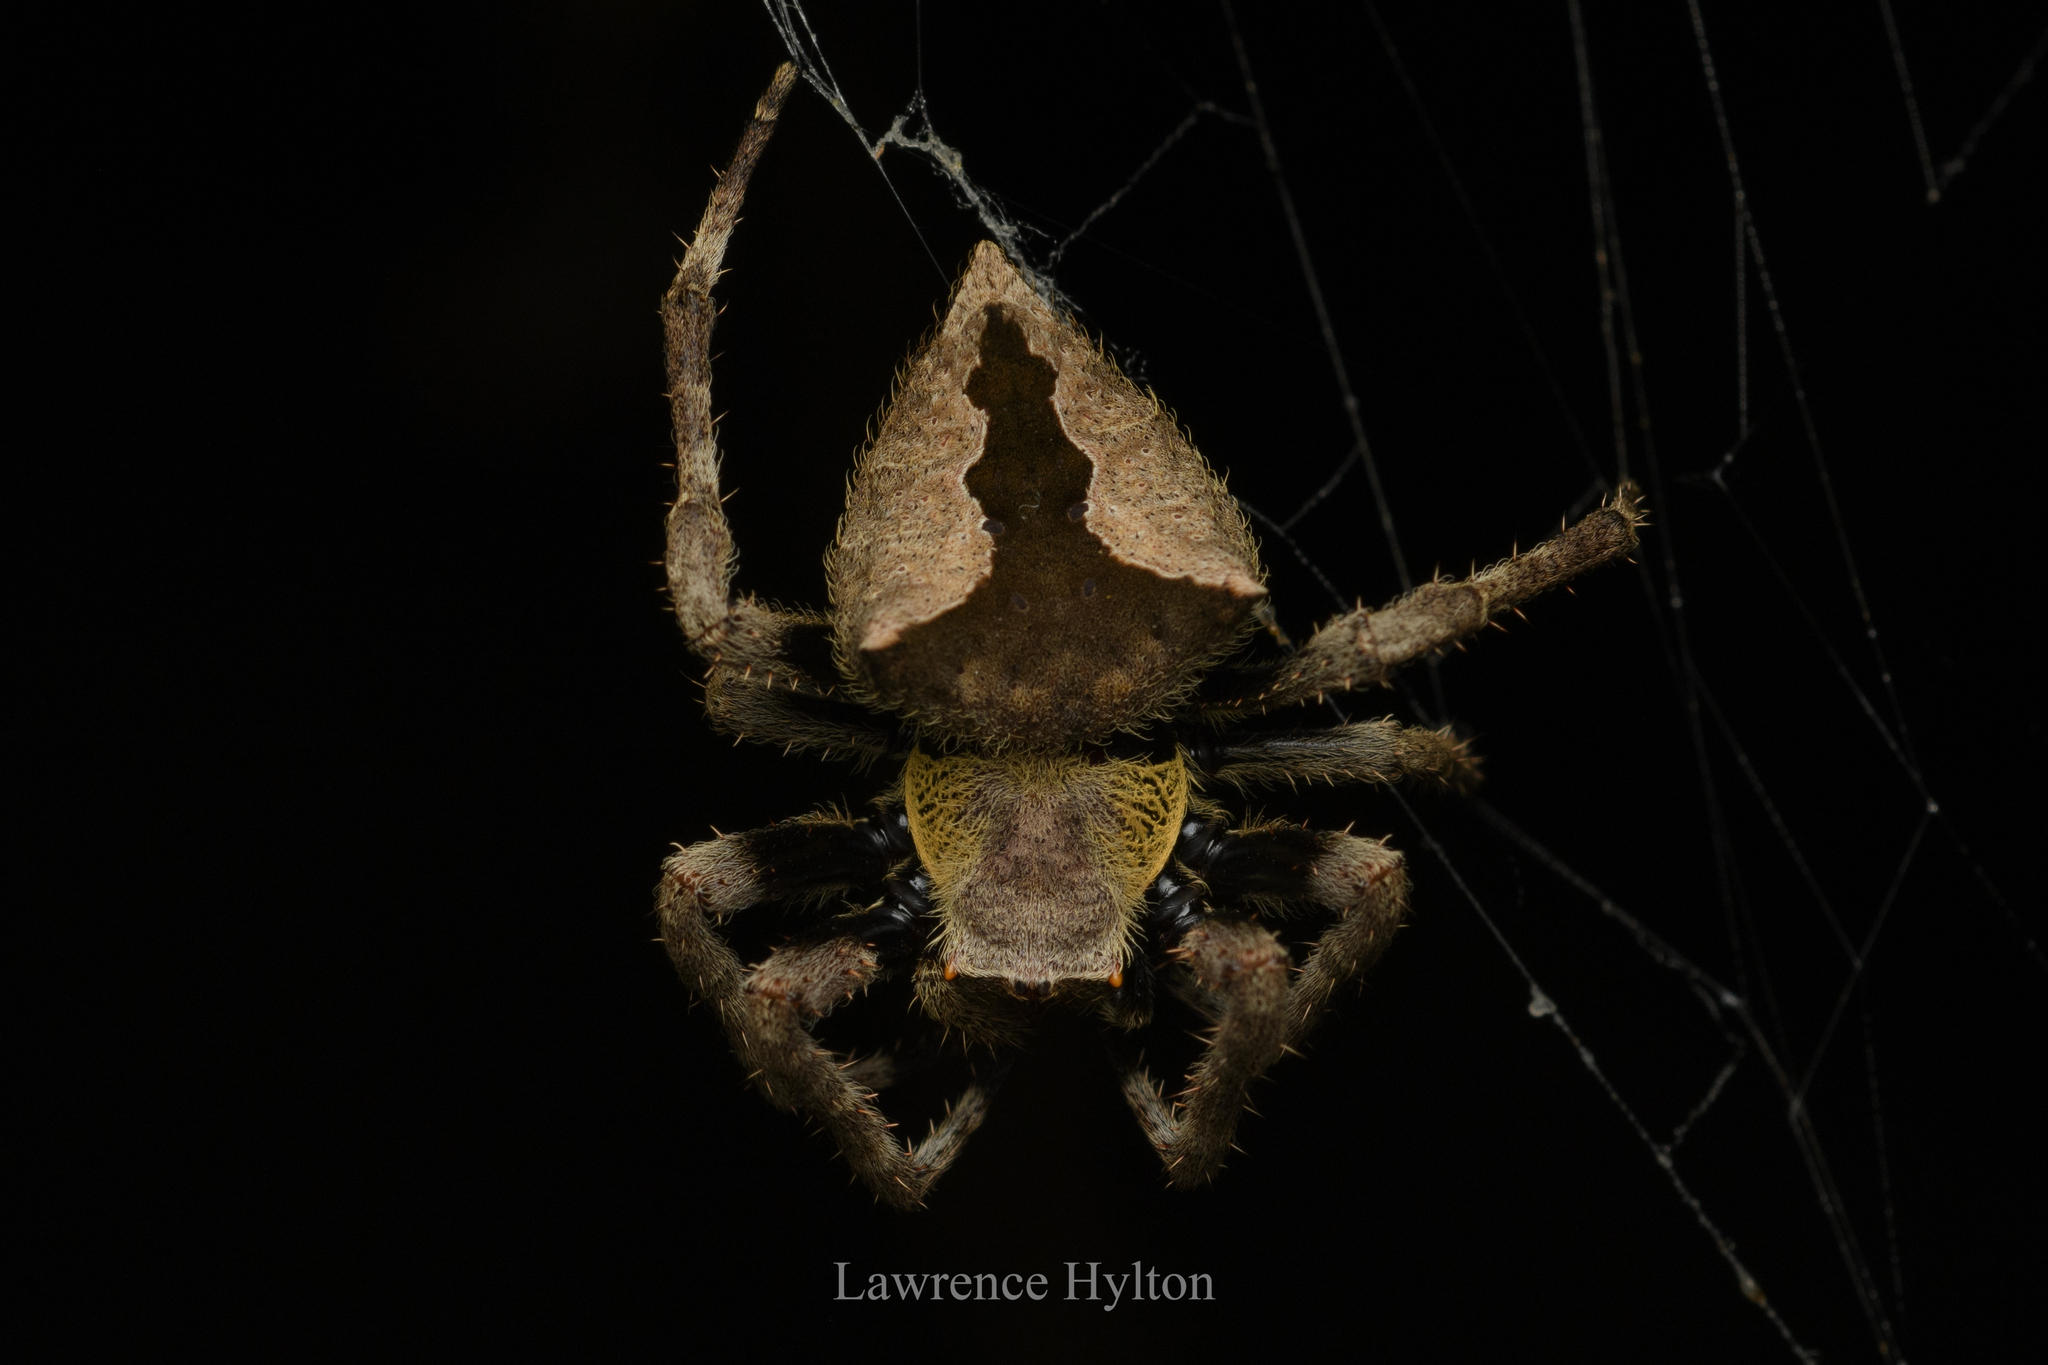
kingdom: Animalia
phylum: Arthropoda
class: Arachnida
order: Araneae
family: Araneidae
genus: Parawixia
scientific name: Parawixia dehaani
